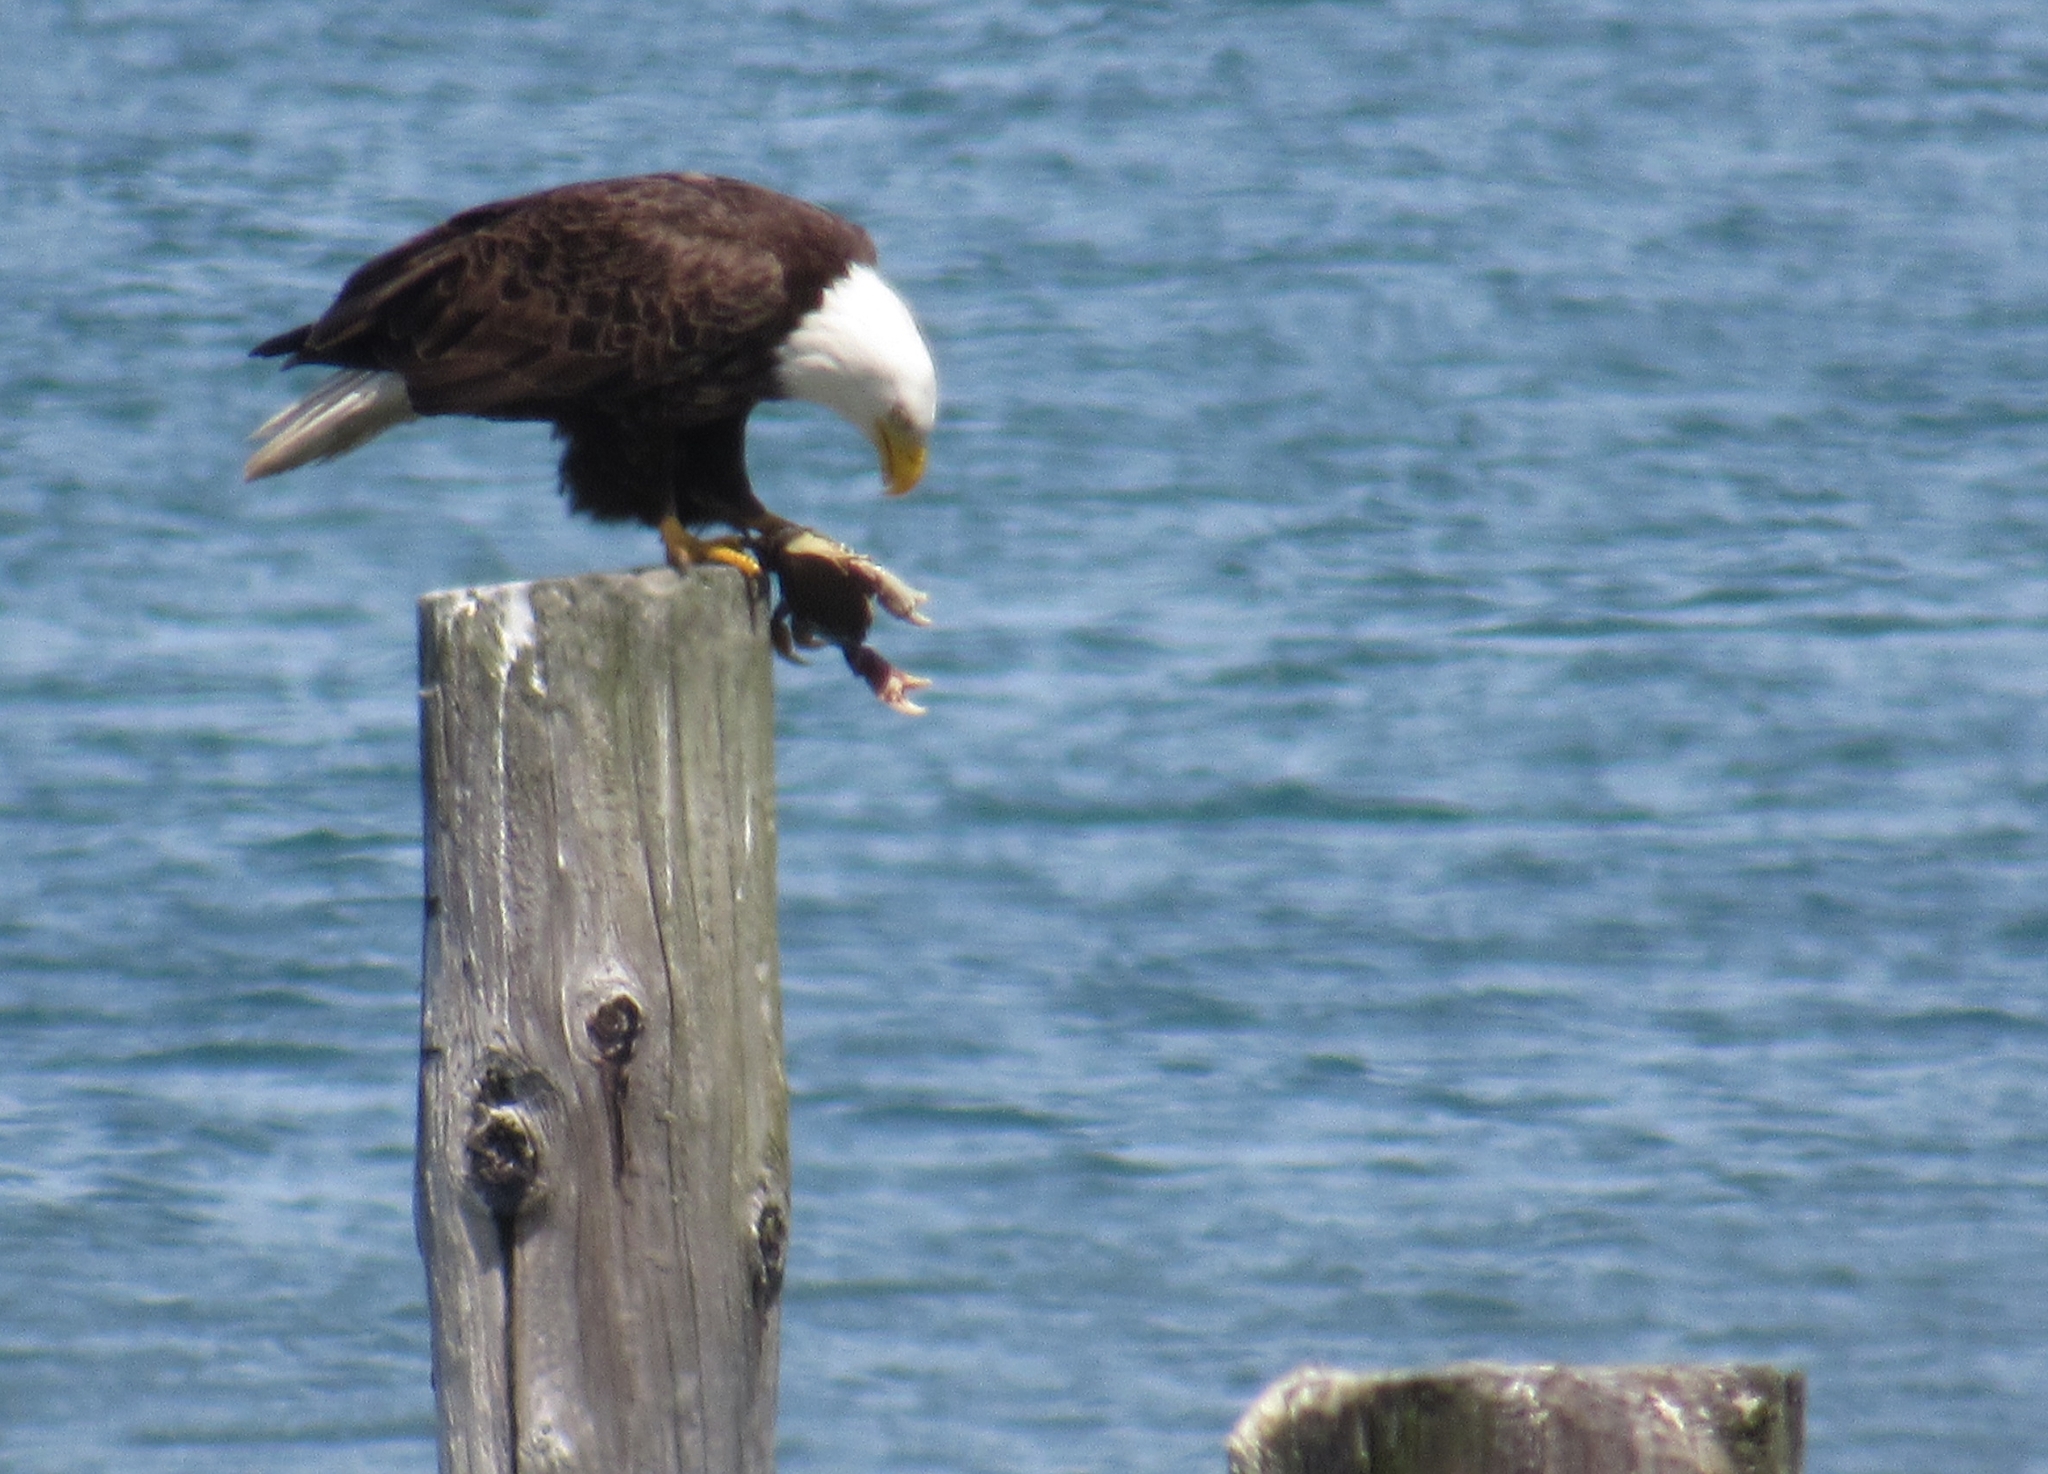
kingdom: Animalia
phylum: Chordata
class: Aves
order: Accipitriformes
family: Accipitridae
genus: Haliaeetus
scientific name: Haliaeetus leucocephalus
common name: Bald eagle
